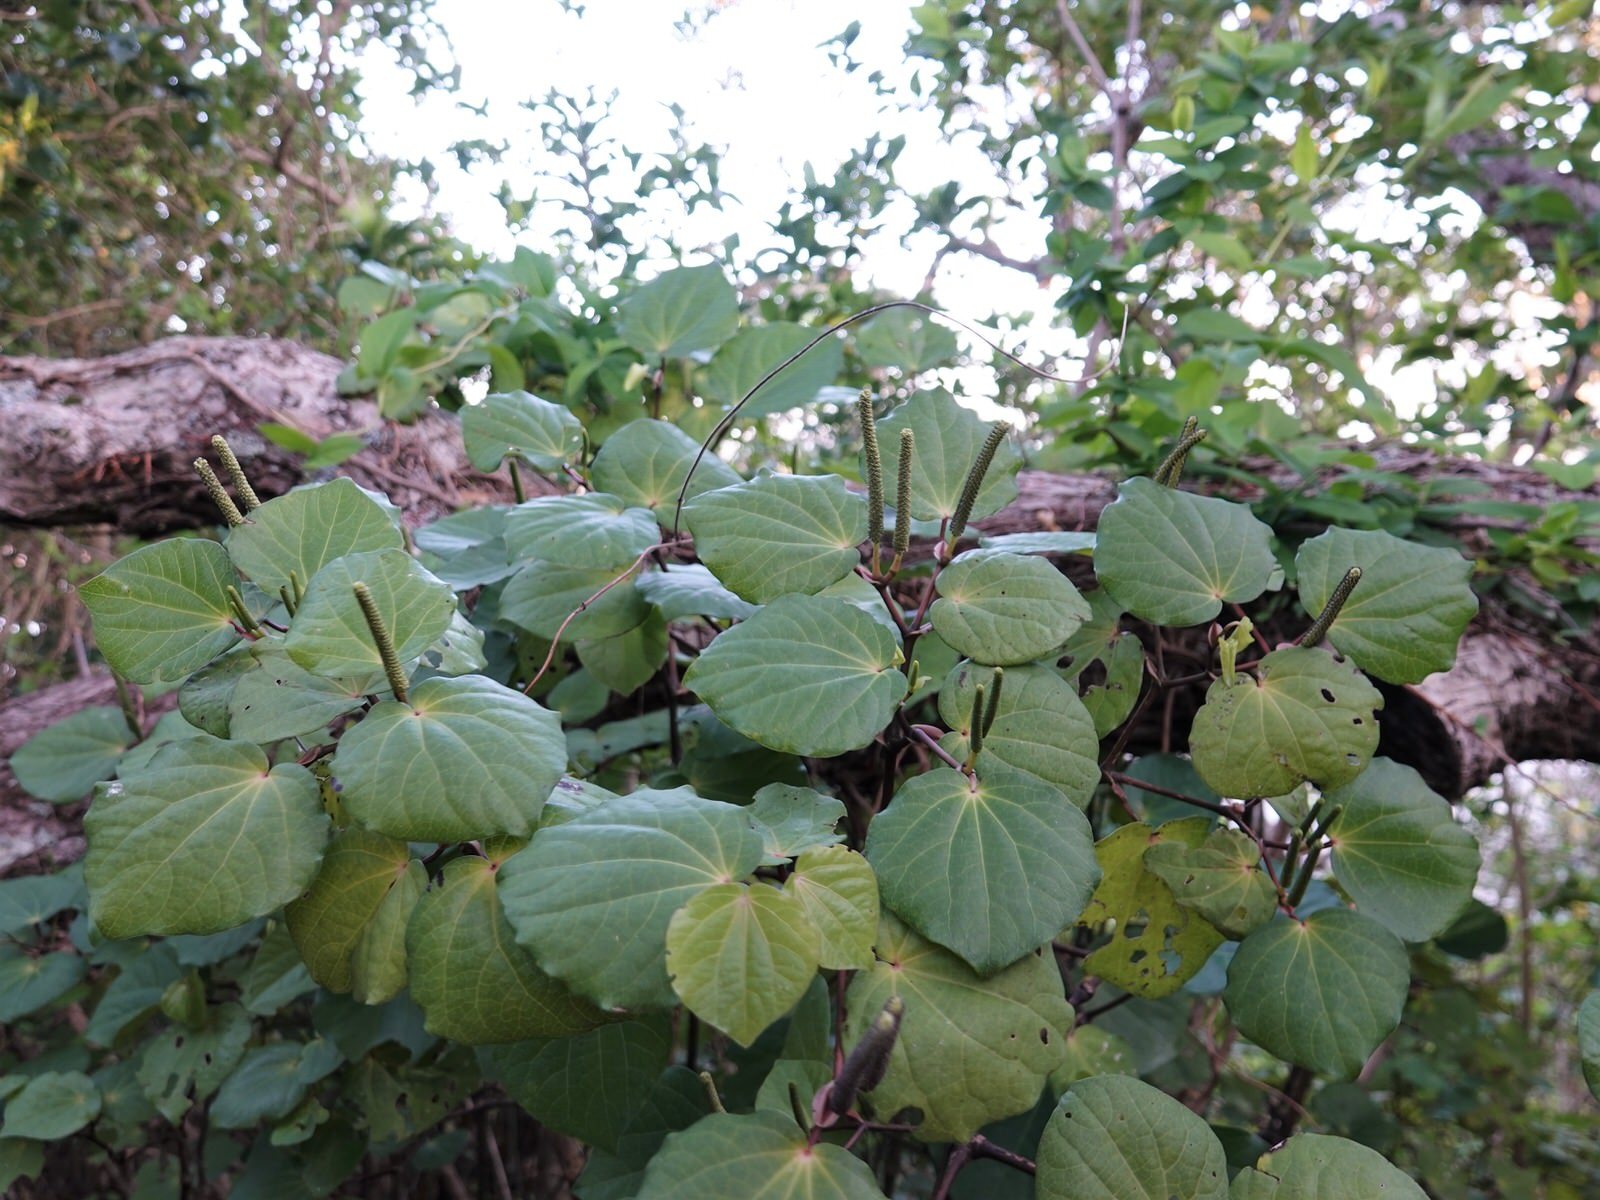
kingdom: Plantae
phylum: Tracheophyta
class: Magnoliopsida
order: Piperales
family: Piperaceae
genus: Macropiper
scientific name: Macropiper excelsum
